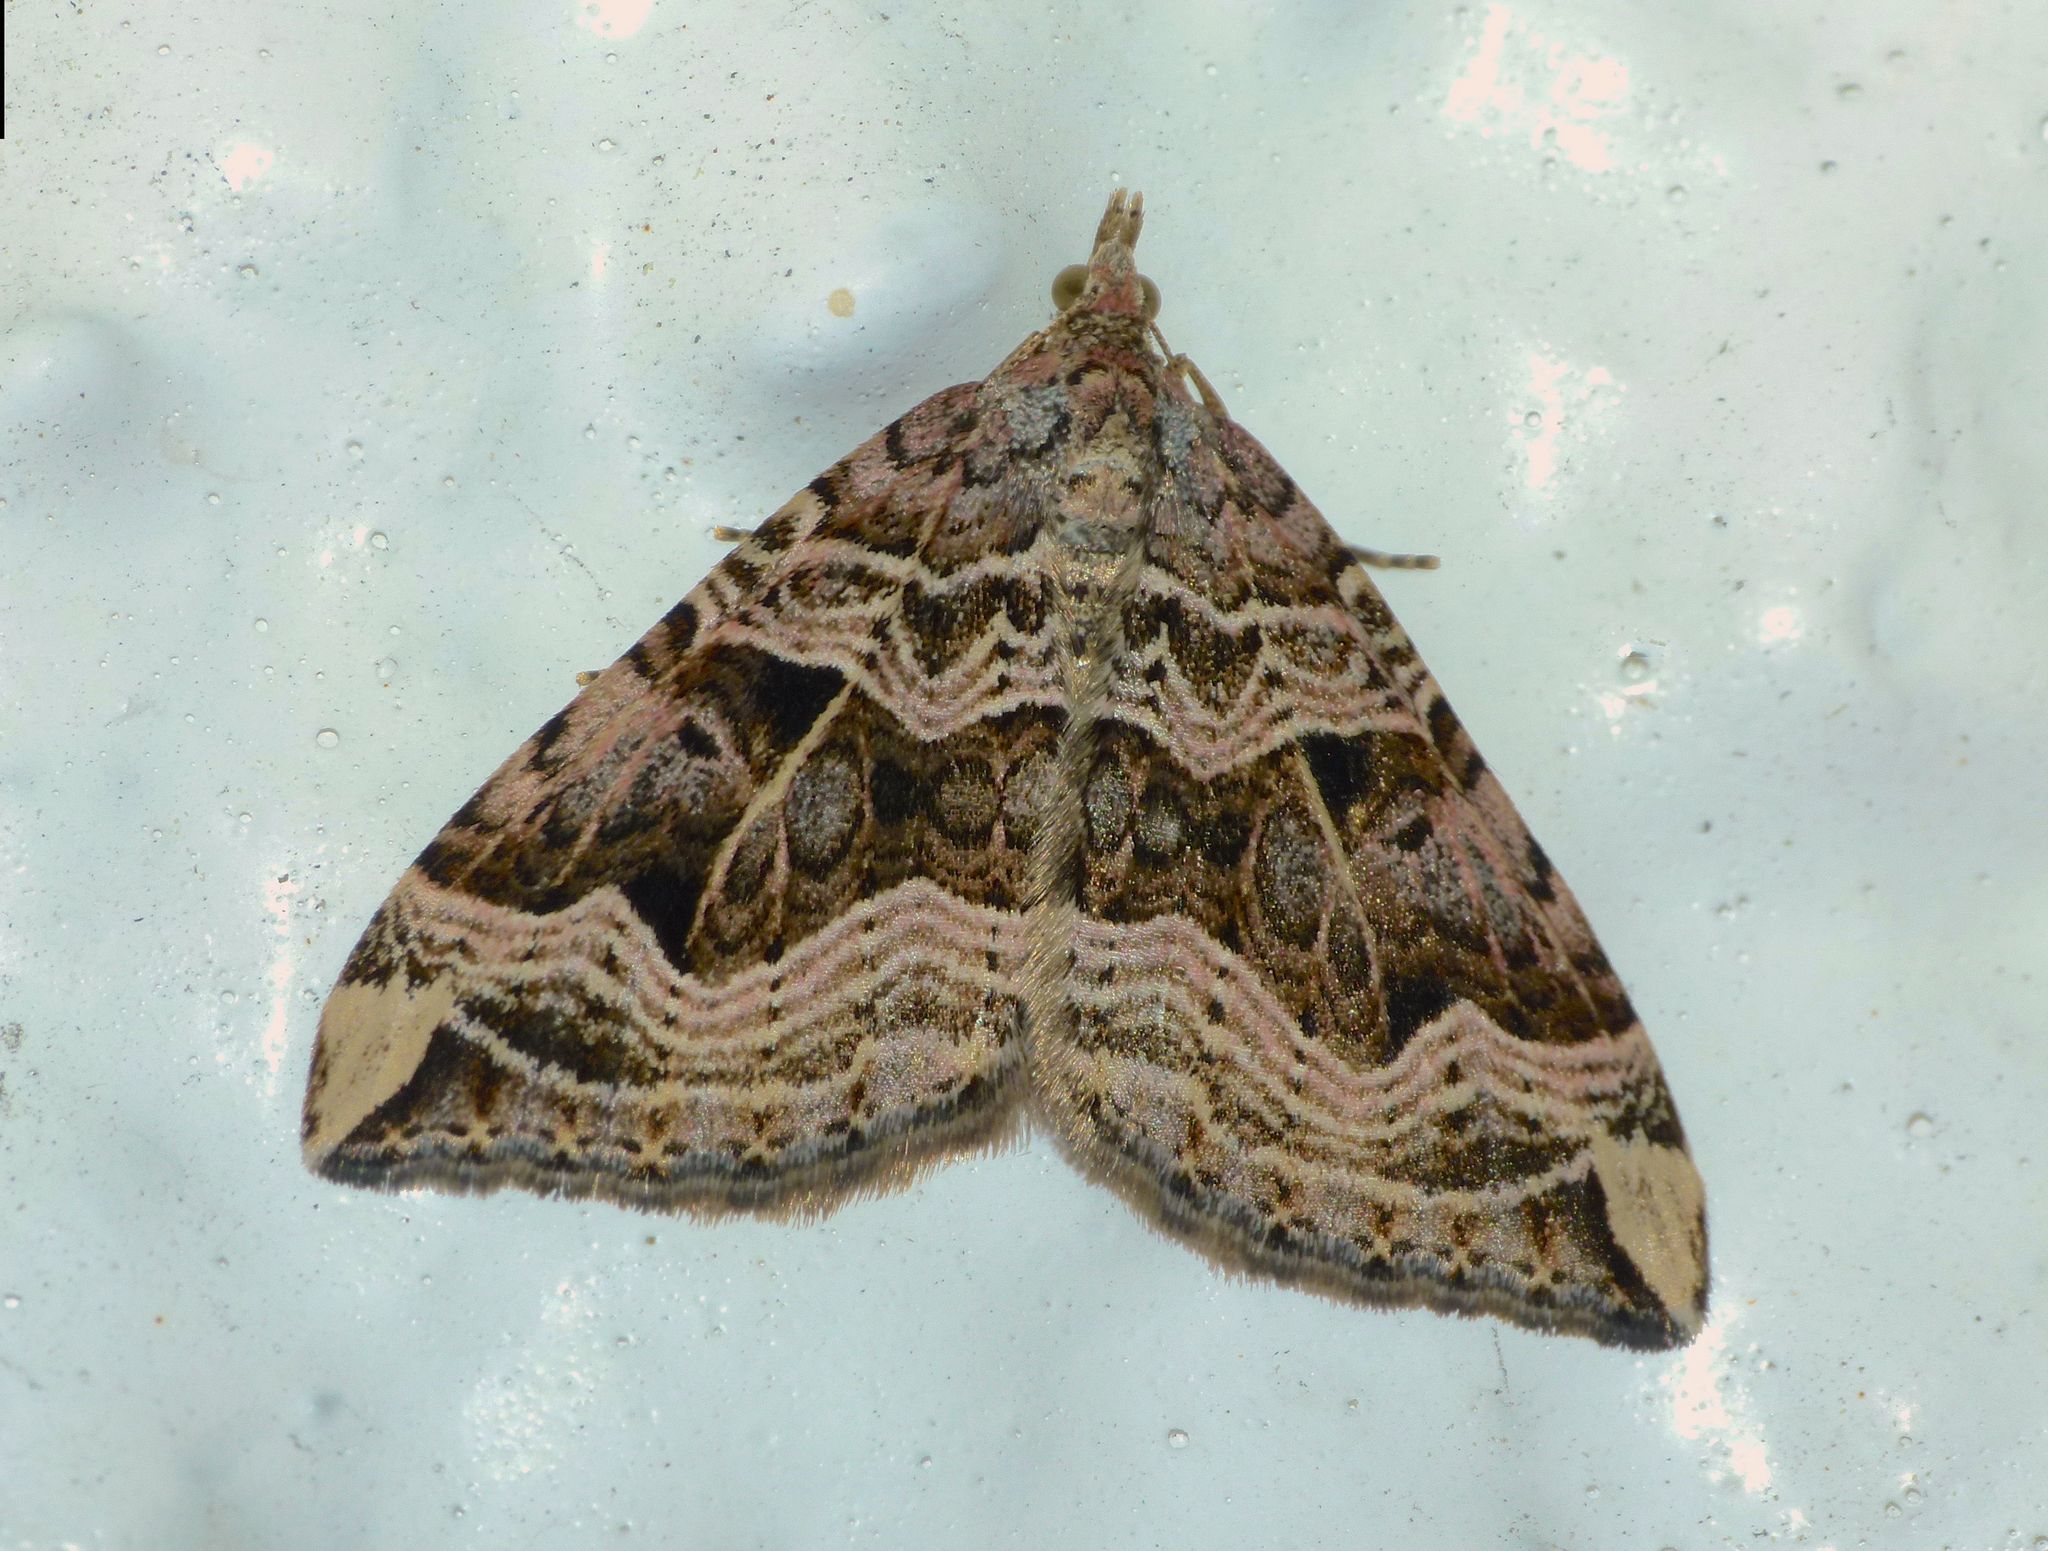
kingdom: Animalia
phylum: Arthropoda
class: Insecta
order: Lepidoptera
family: Geometridae
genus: Xanthorhoe
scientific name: Xanthorhoe semifissata
